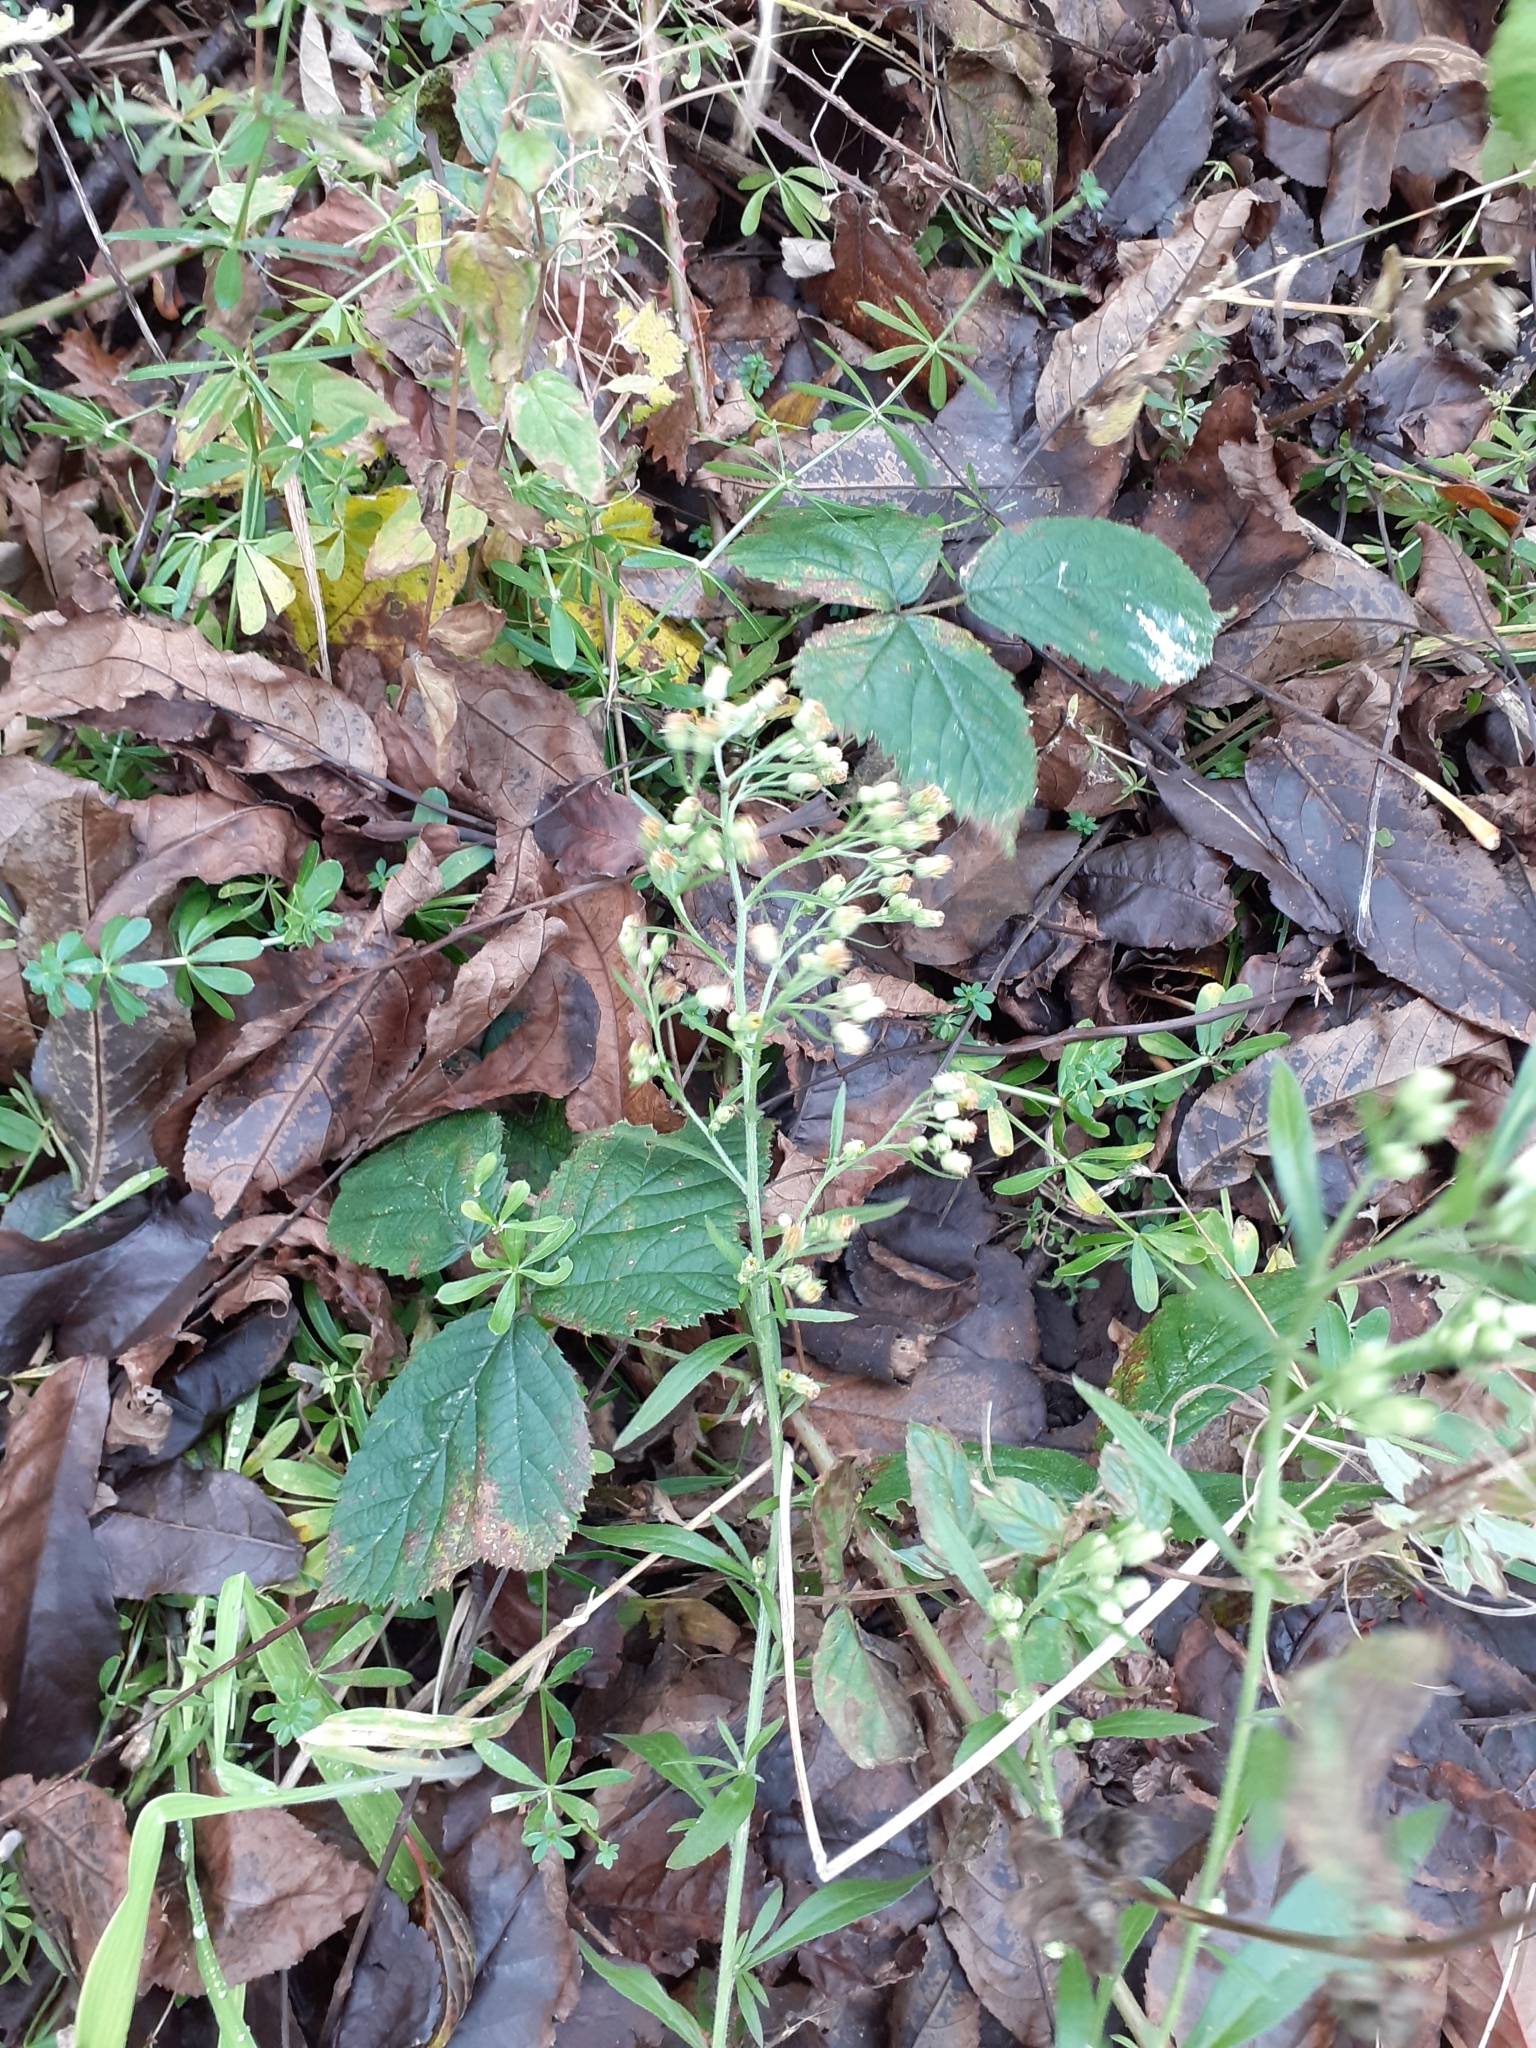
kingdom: Plantae
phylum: Tracheophyta
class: Magnoliopsida
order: Asterales
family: Asteraceae
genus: Erigeron
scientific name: Erigeron canadensis
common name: Canadian fleabane
